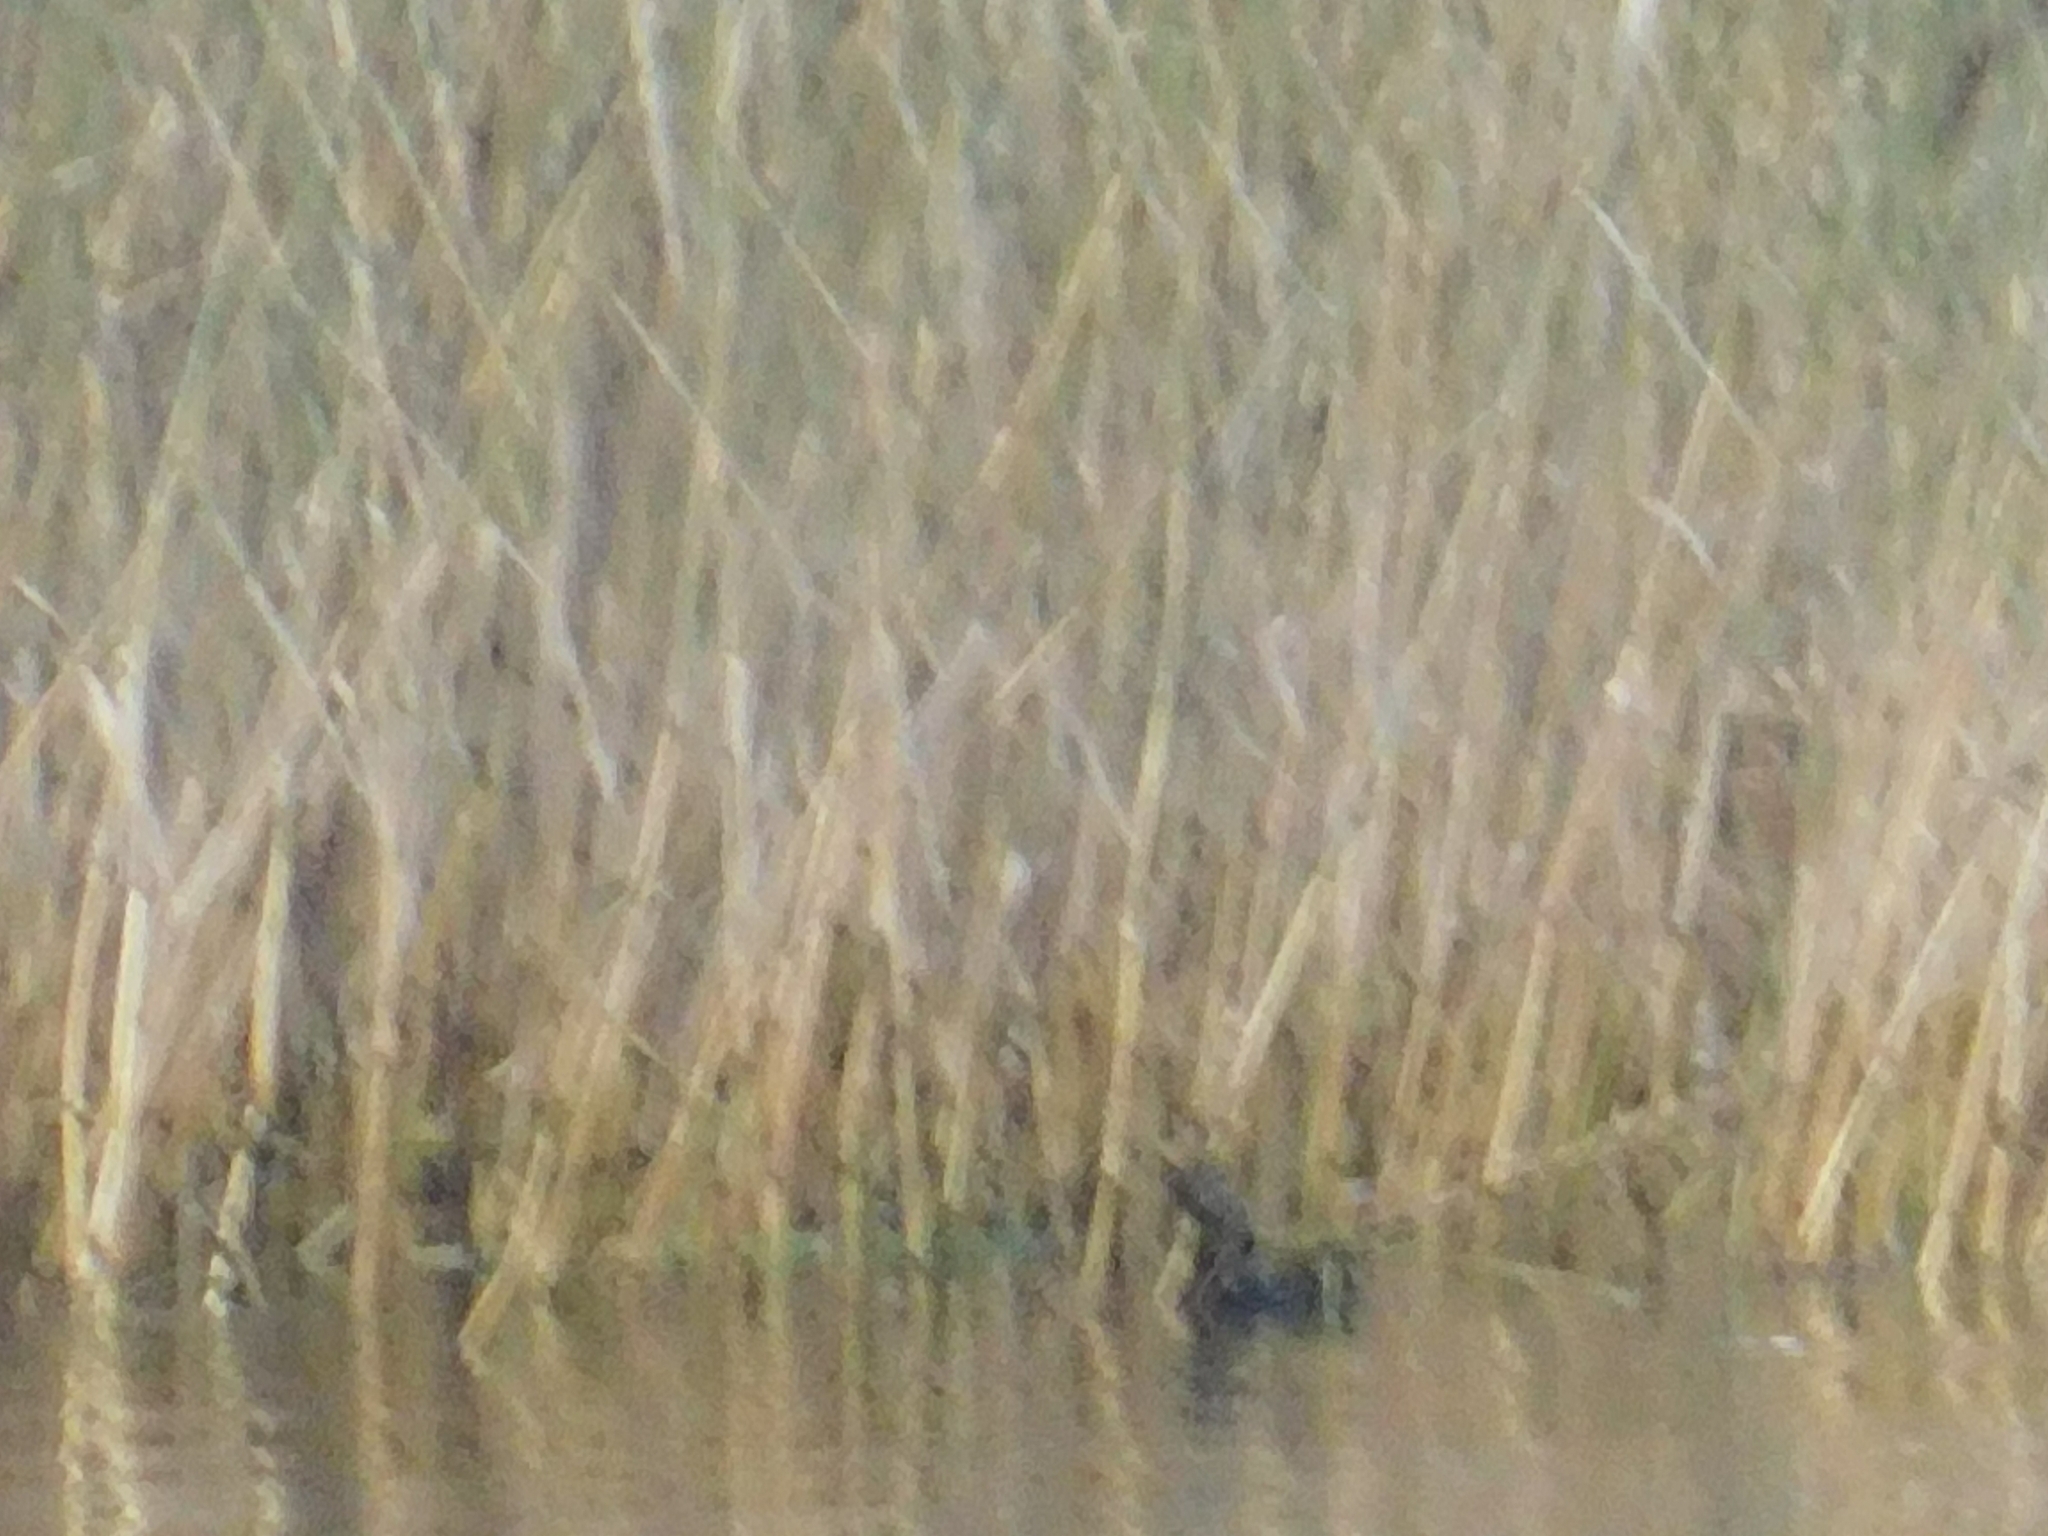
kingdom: Animalia
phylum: Chordata
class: Aves
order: Gruiformes
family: Rallidae
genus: Fulica
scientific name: Fulica atra
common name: Eurasian coot
